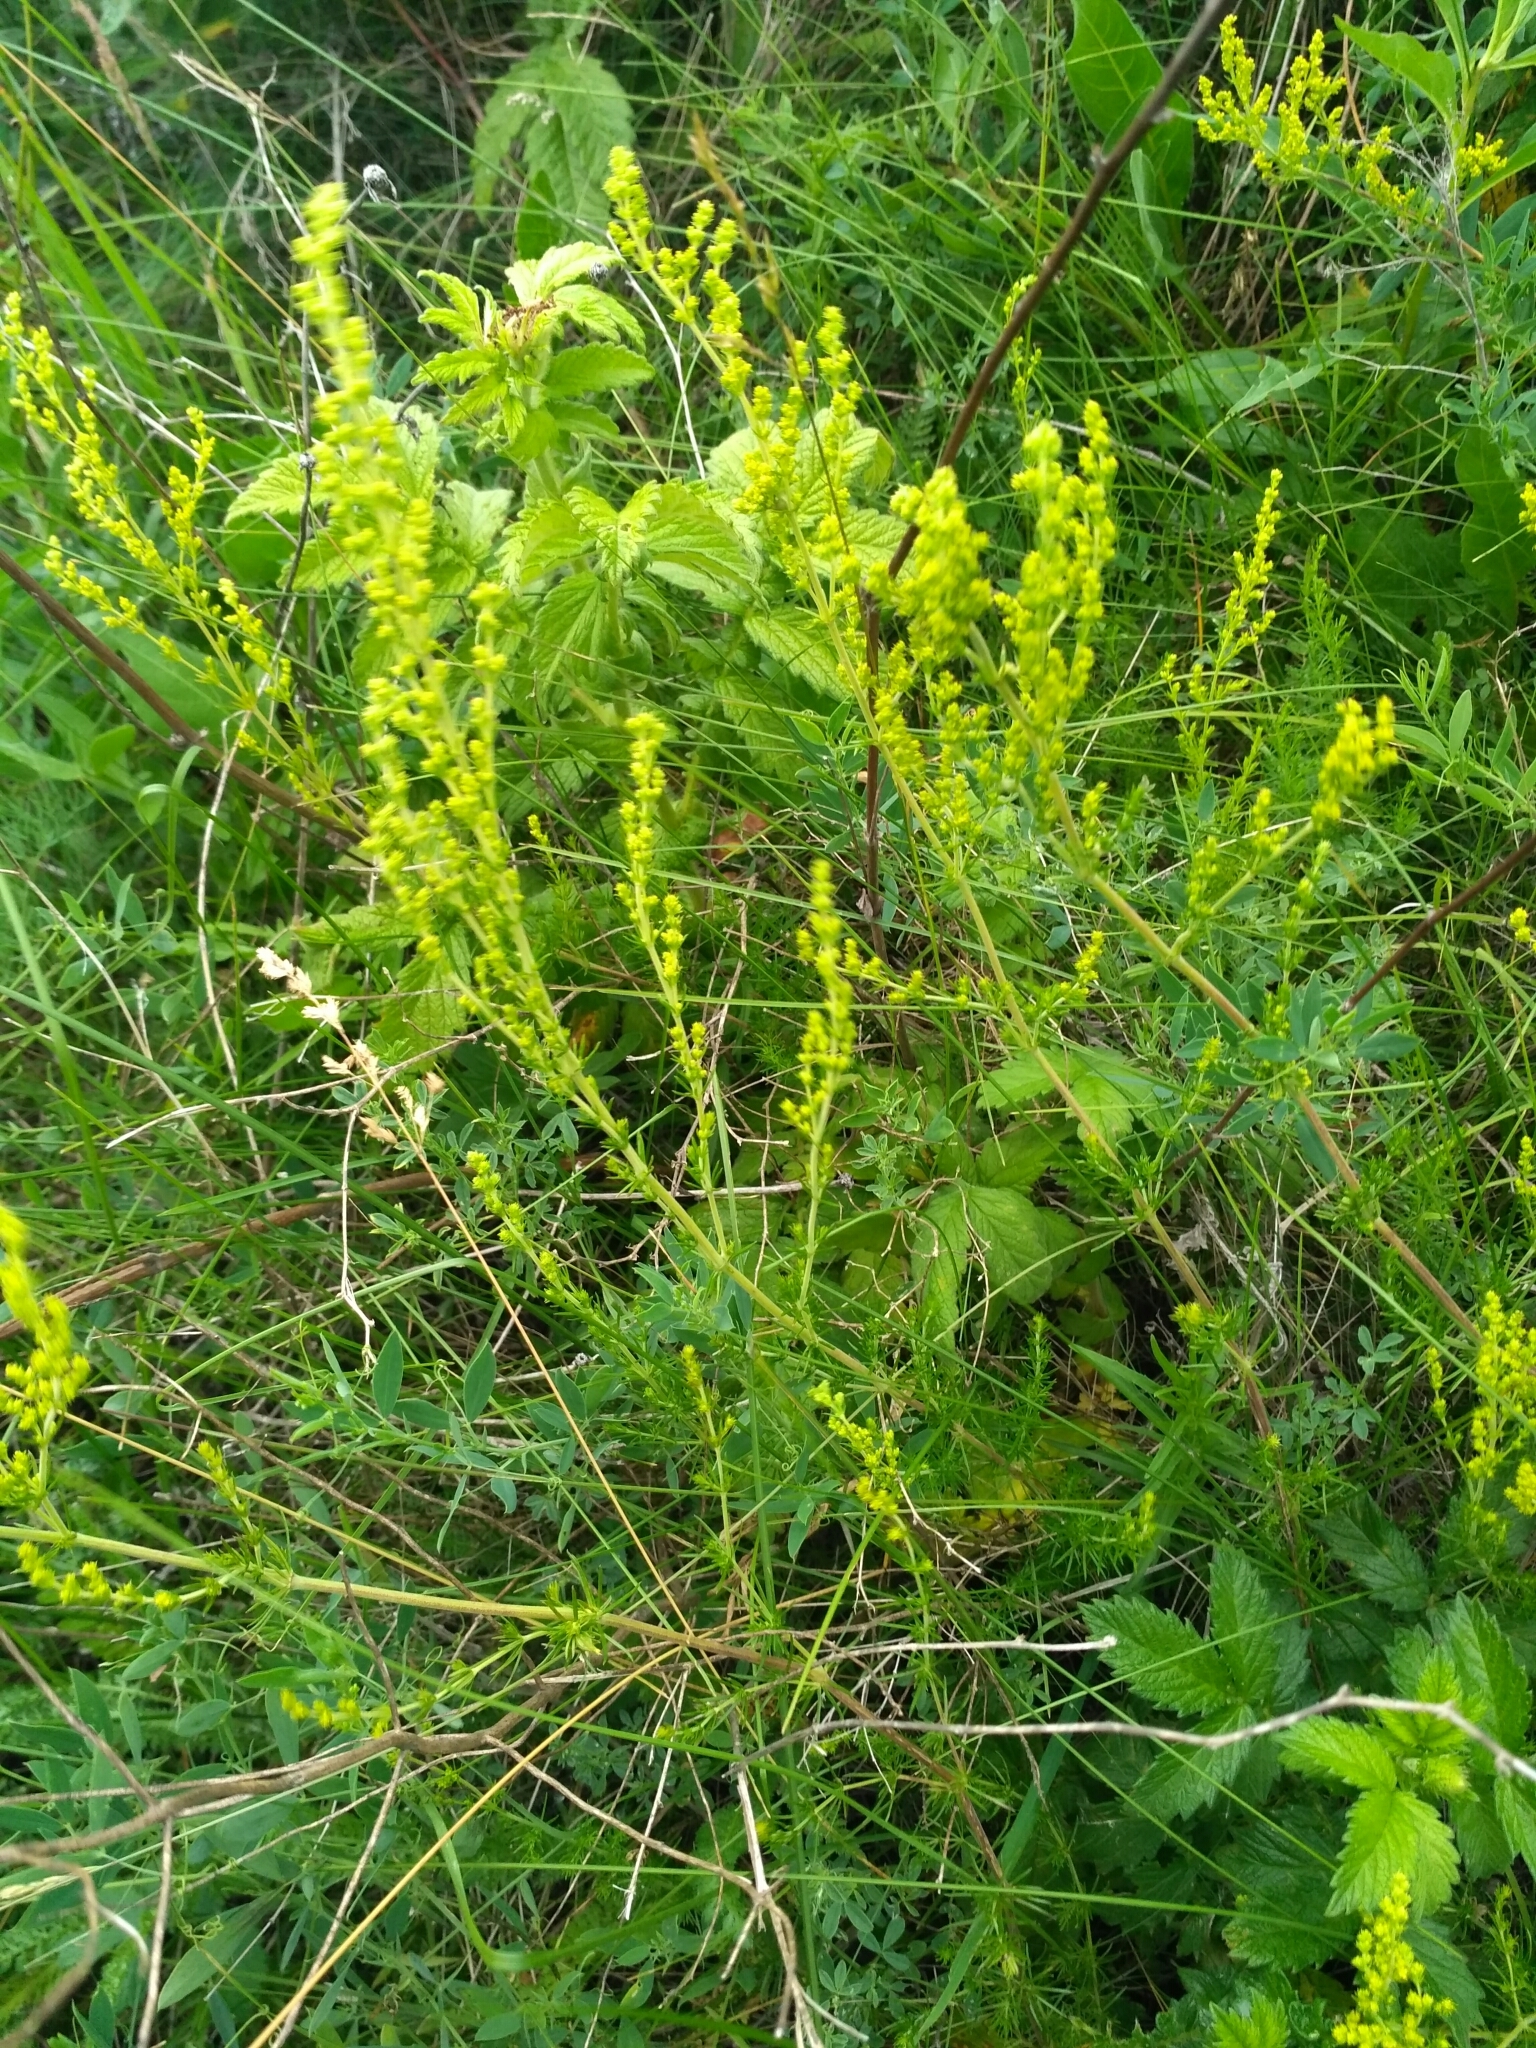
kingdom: Plantae
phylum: Tracheophyta
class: Magnoliopsida
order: Gentianales
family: Rubiaceae
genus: Galium
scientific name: Galium verum
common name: Lady's bedstraw
